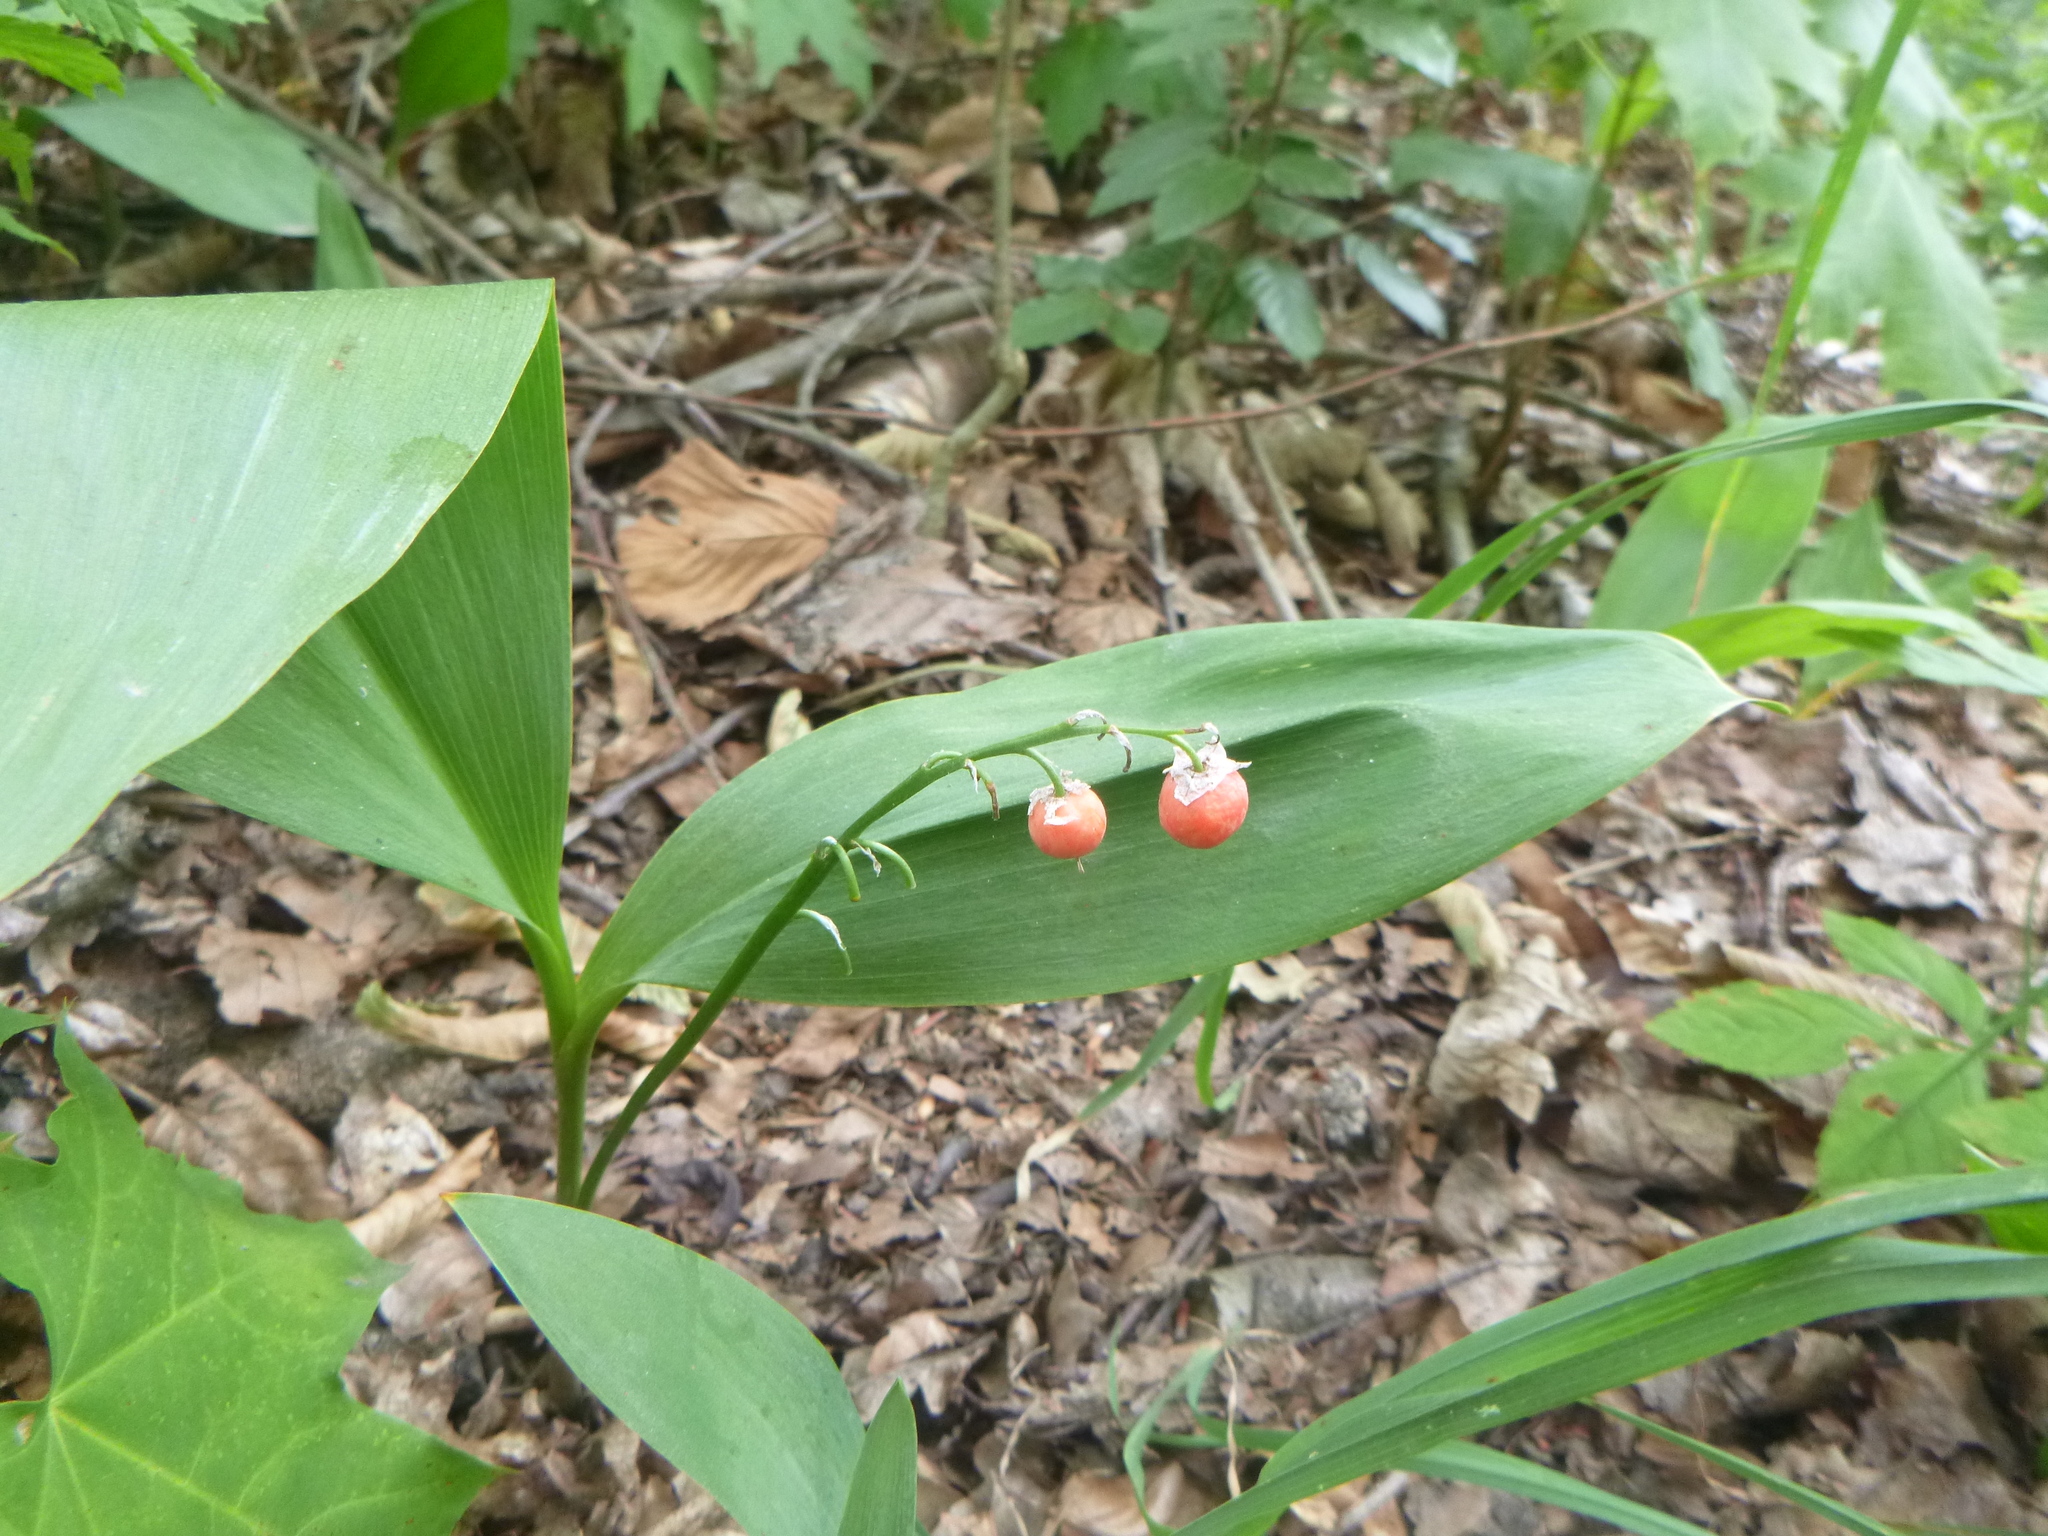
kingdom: Plantae
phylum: Tracheophyta
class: Liliopsida
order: Asparagales
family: Asparagaceae
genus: Convallaria
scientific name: Convallaria majalis
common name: Lily-of-the-valley
